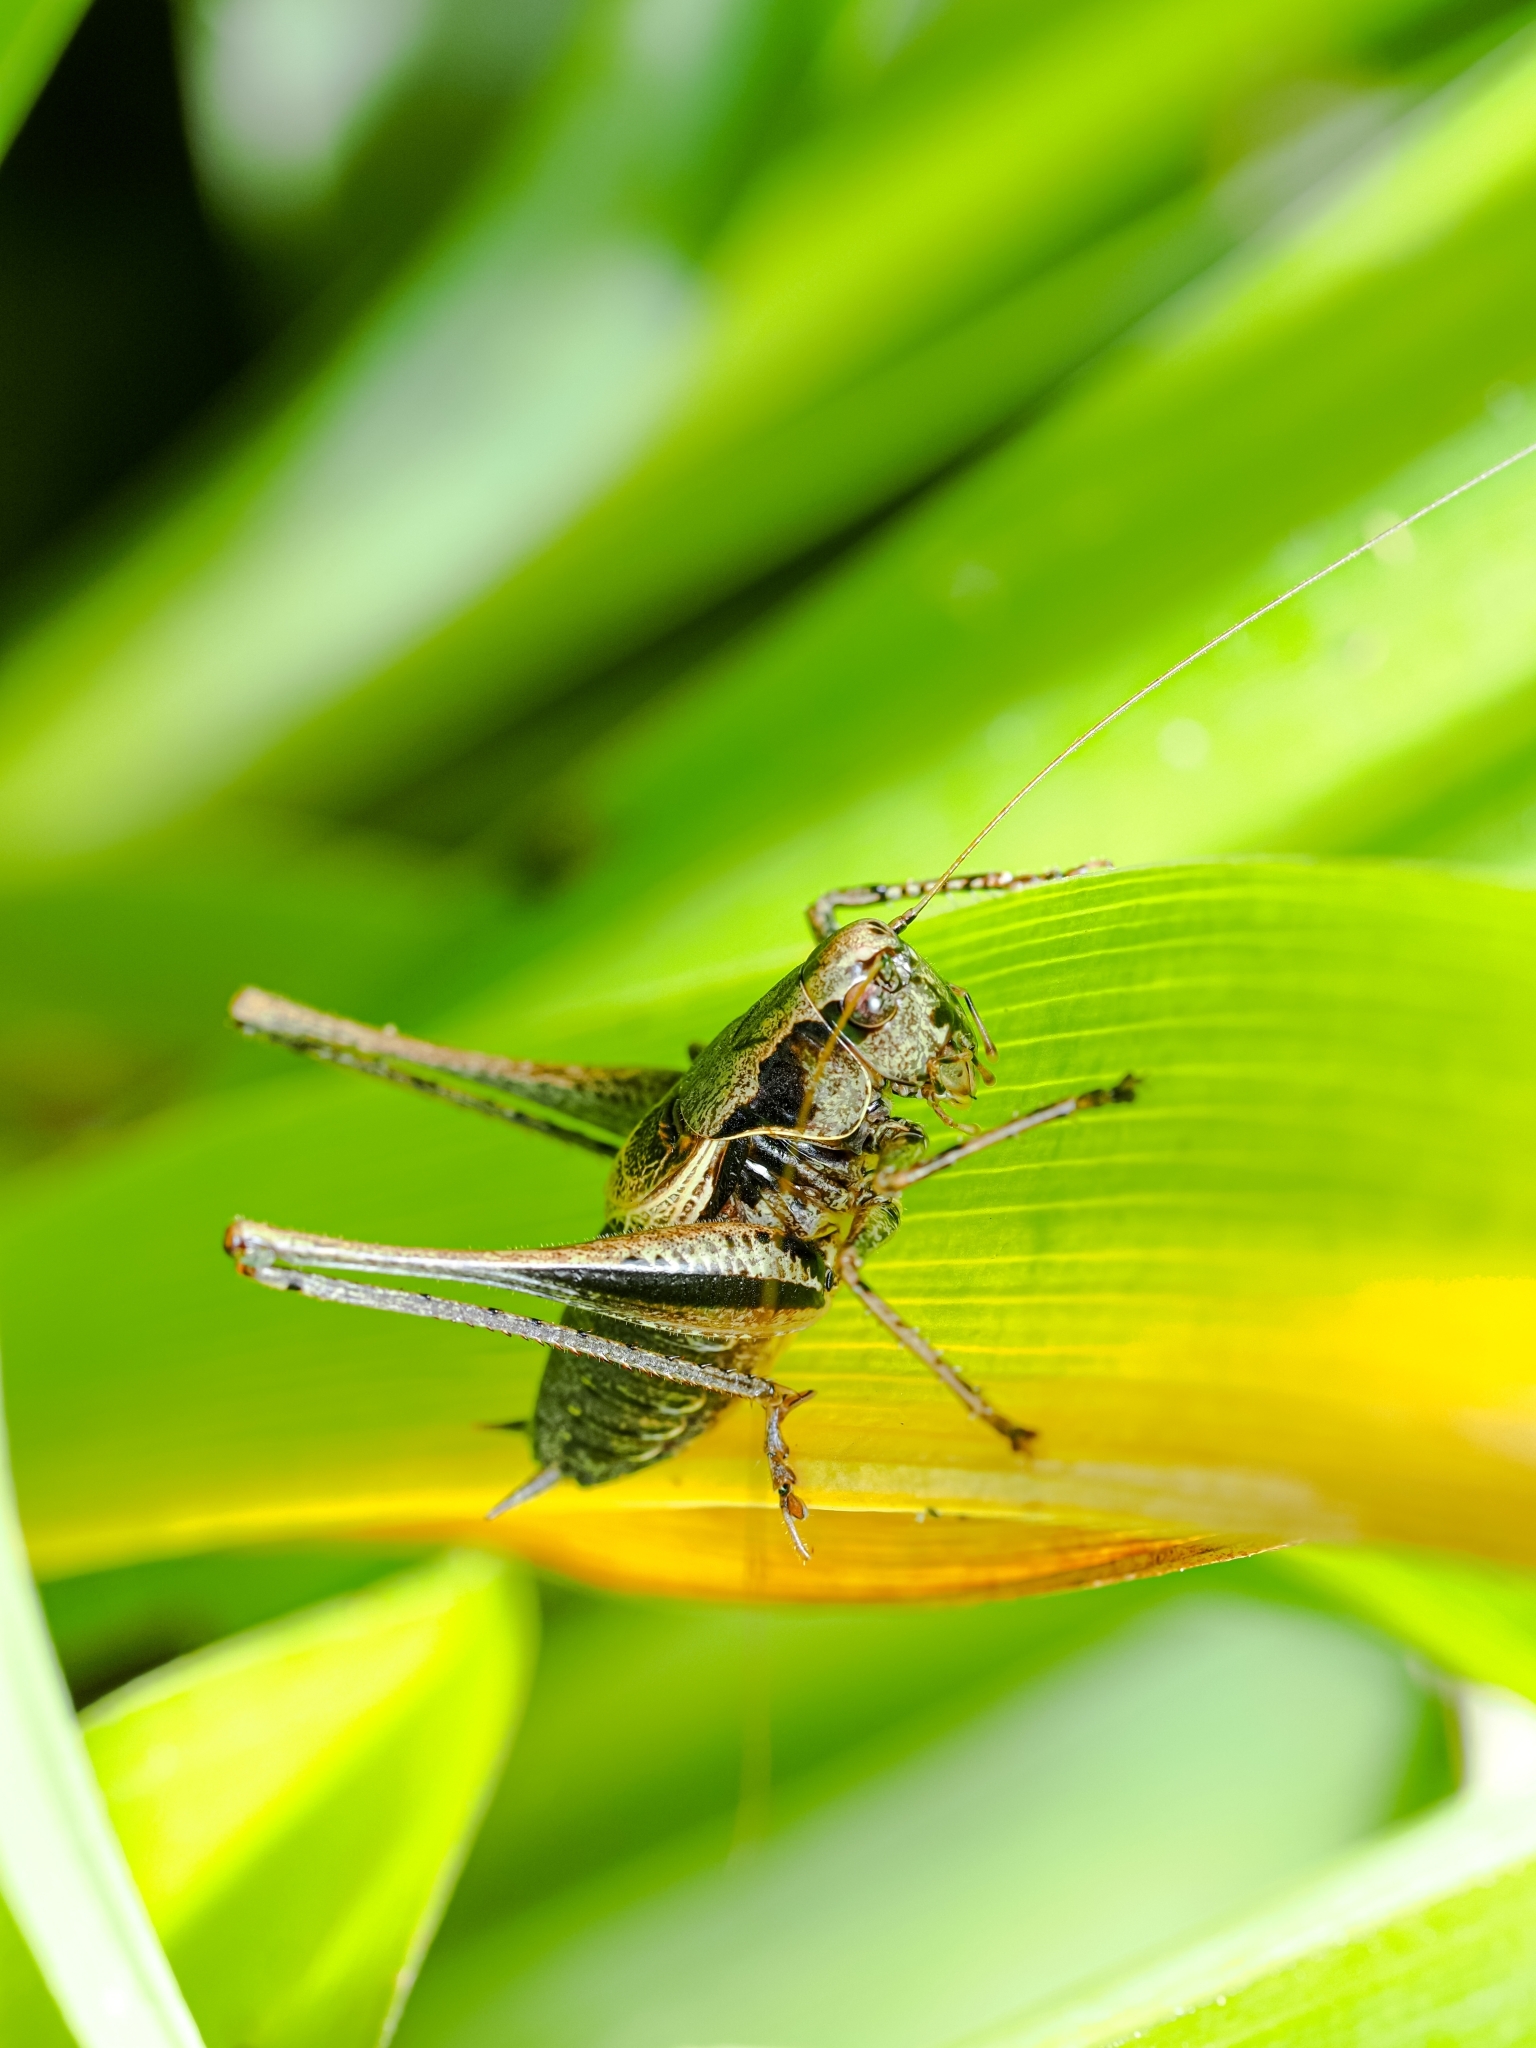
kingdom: Animalia
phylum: Arthropoda
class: Insecta
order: Orthoptera
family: Tettigoniidae
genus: Pholidoptera
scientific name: Pholidoptera griseoaptera
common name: Dark bush-cricket
